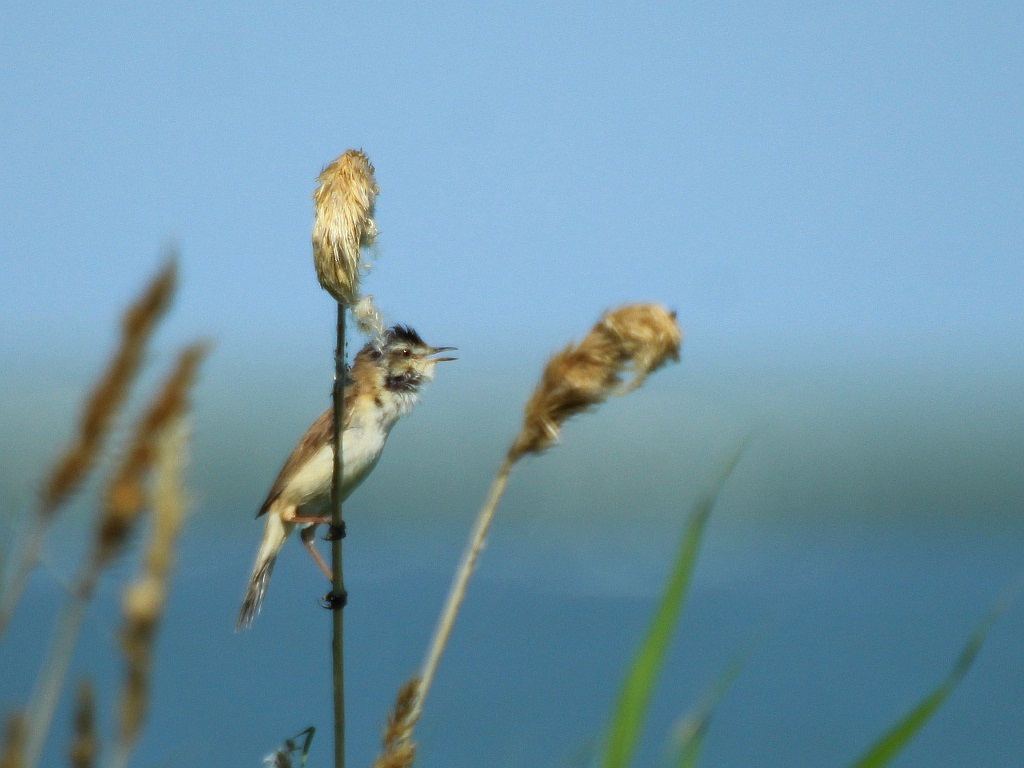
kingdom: Animalia
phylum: Chordata
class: Aves
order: Passeriformes
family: Acrocephalidae
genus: Acrocephalus
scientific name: Acrocephalus agricola
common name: Paddyfield warbler
